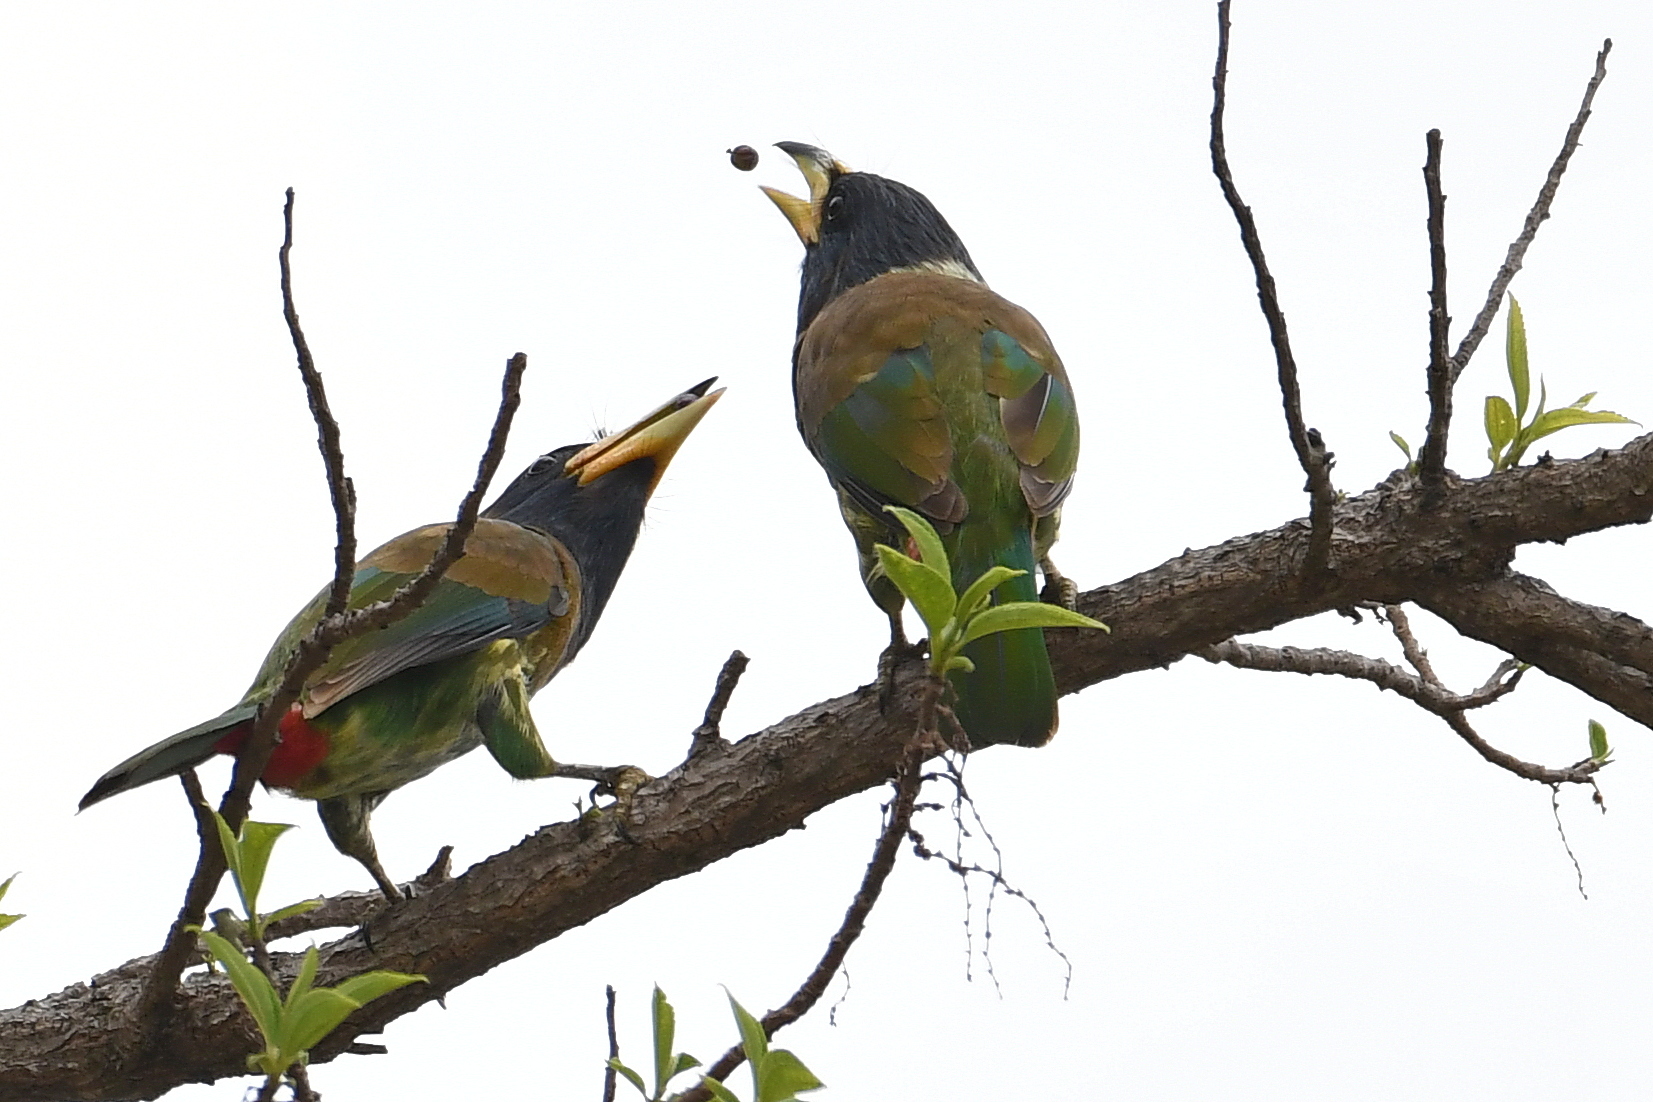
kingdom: Animalia
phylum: Chordata
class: Aves
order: Piciformes
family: Megalaimidae
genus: Psilopogon
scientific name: Psilopogon virens
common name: Great barbet
